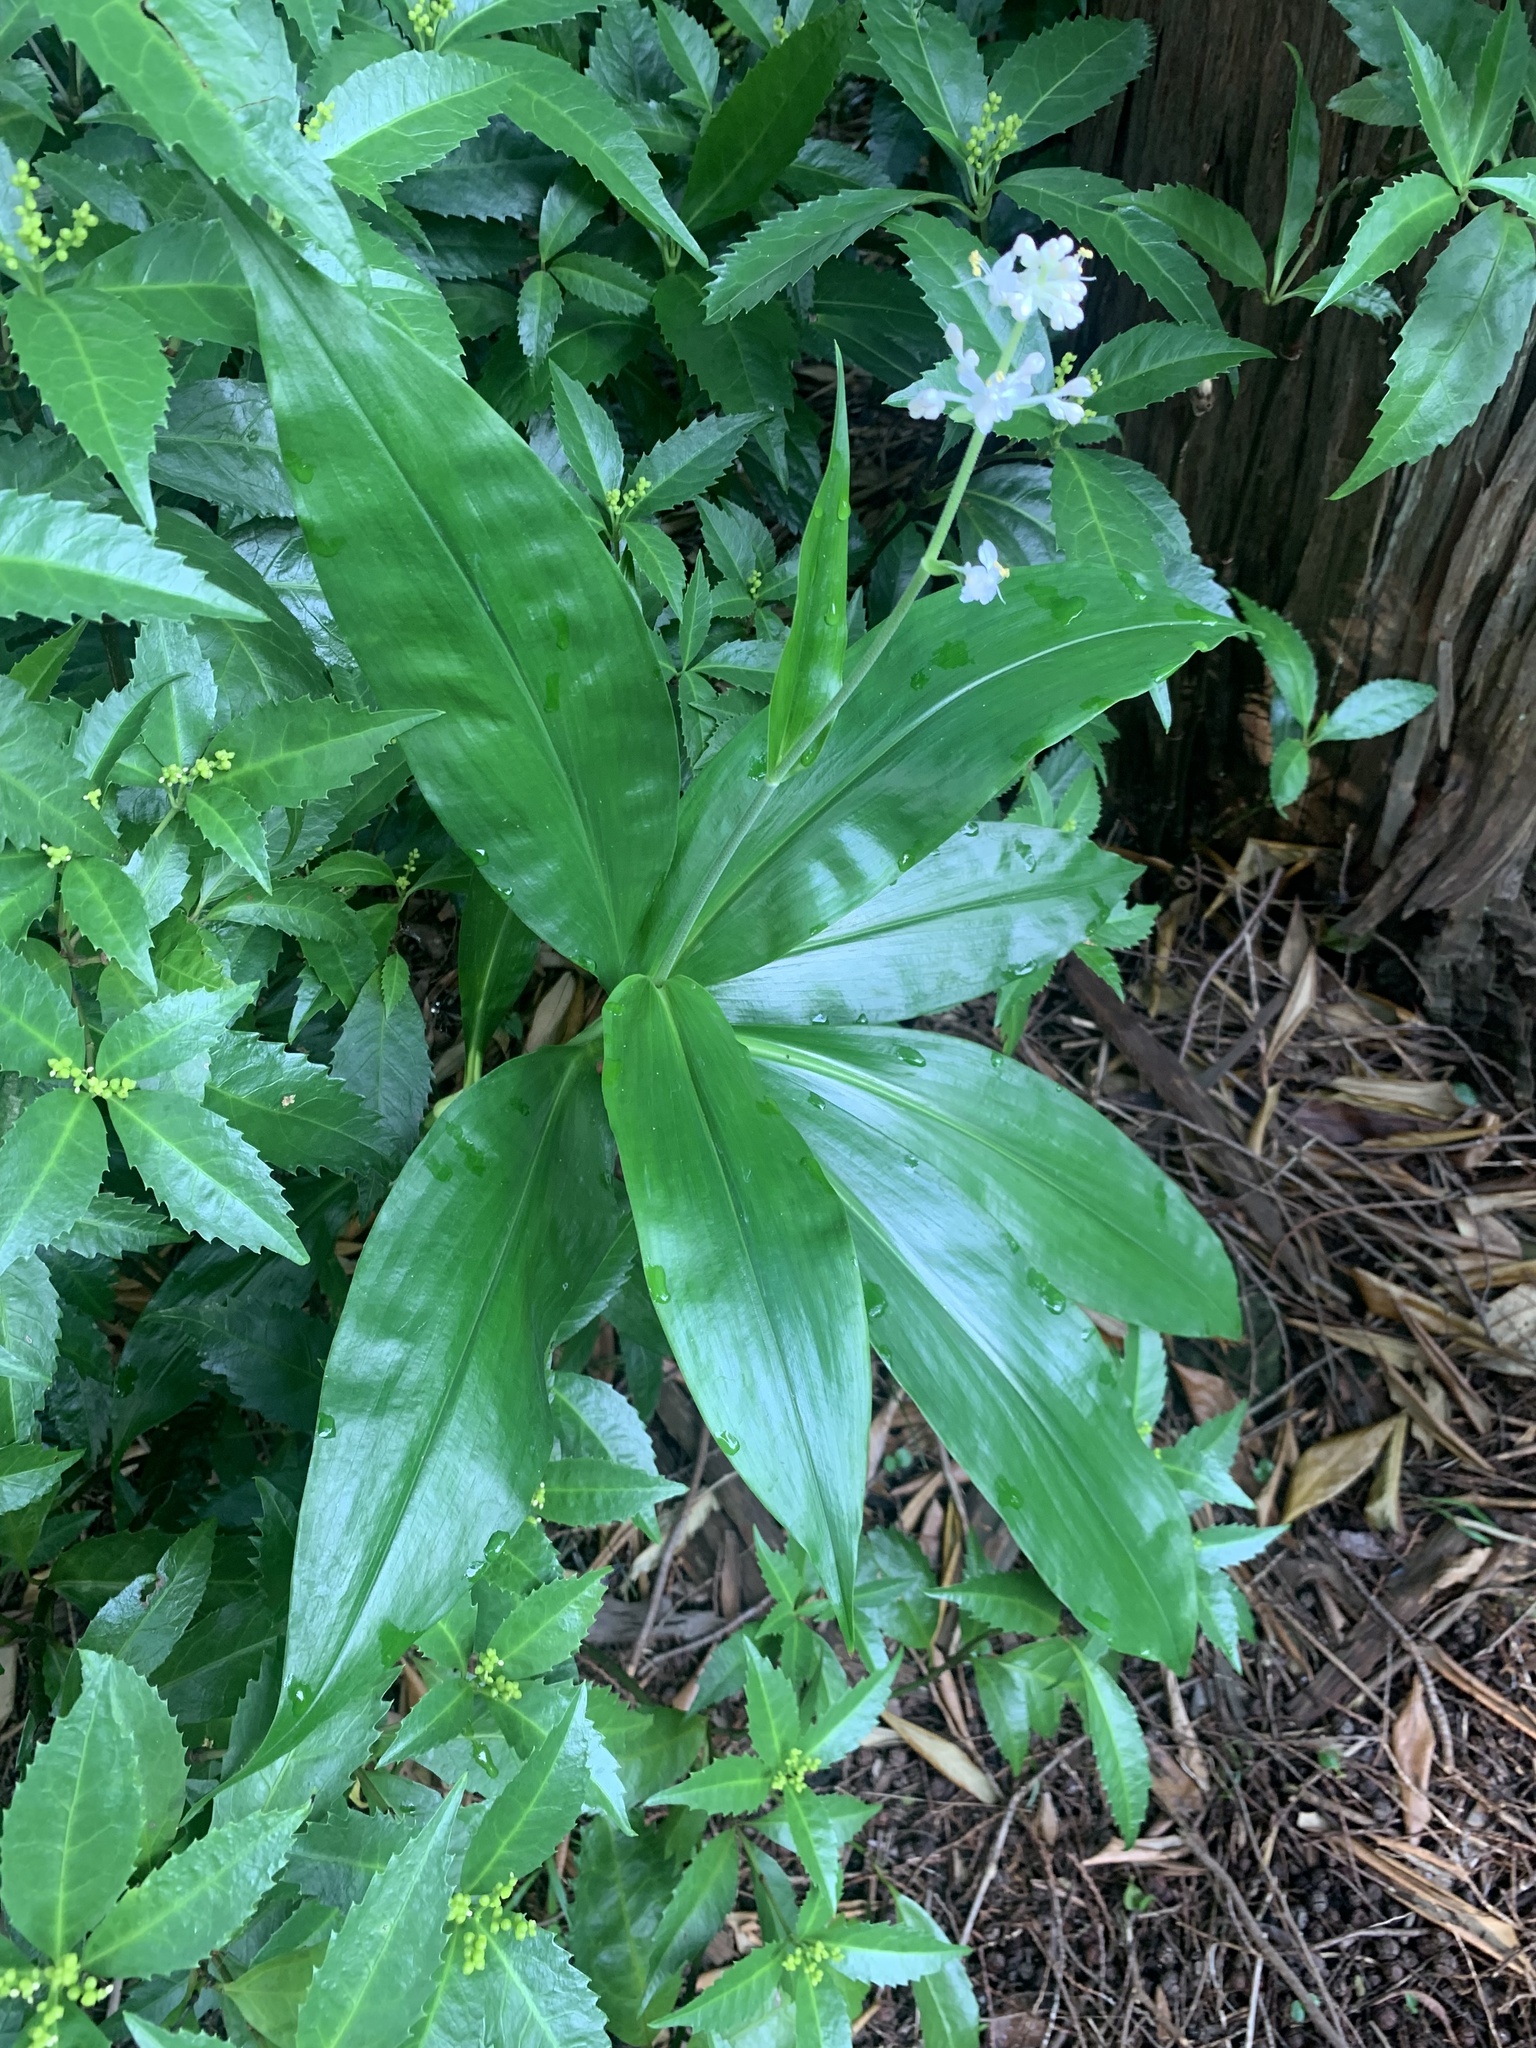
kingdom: Plantae
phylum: Tracheophyta
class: Liliopsida
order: Commelinales
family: Commelinaceae
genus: Pollia
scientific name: Pollia japonica
